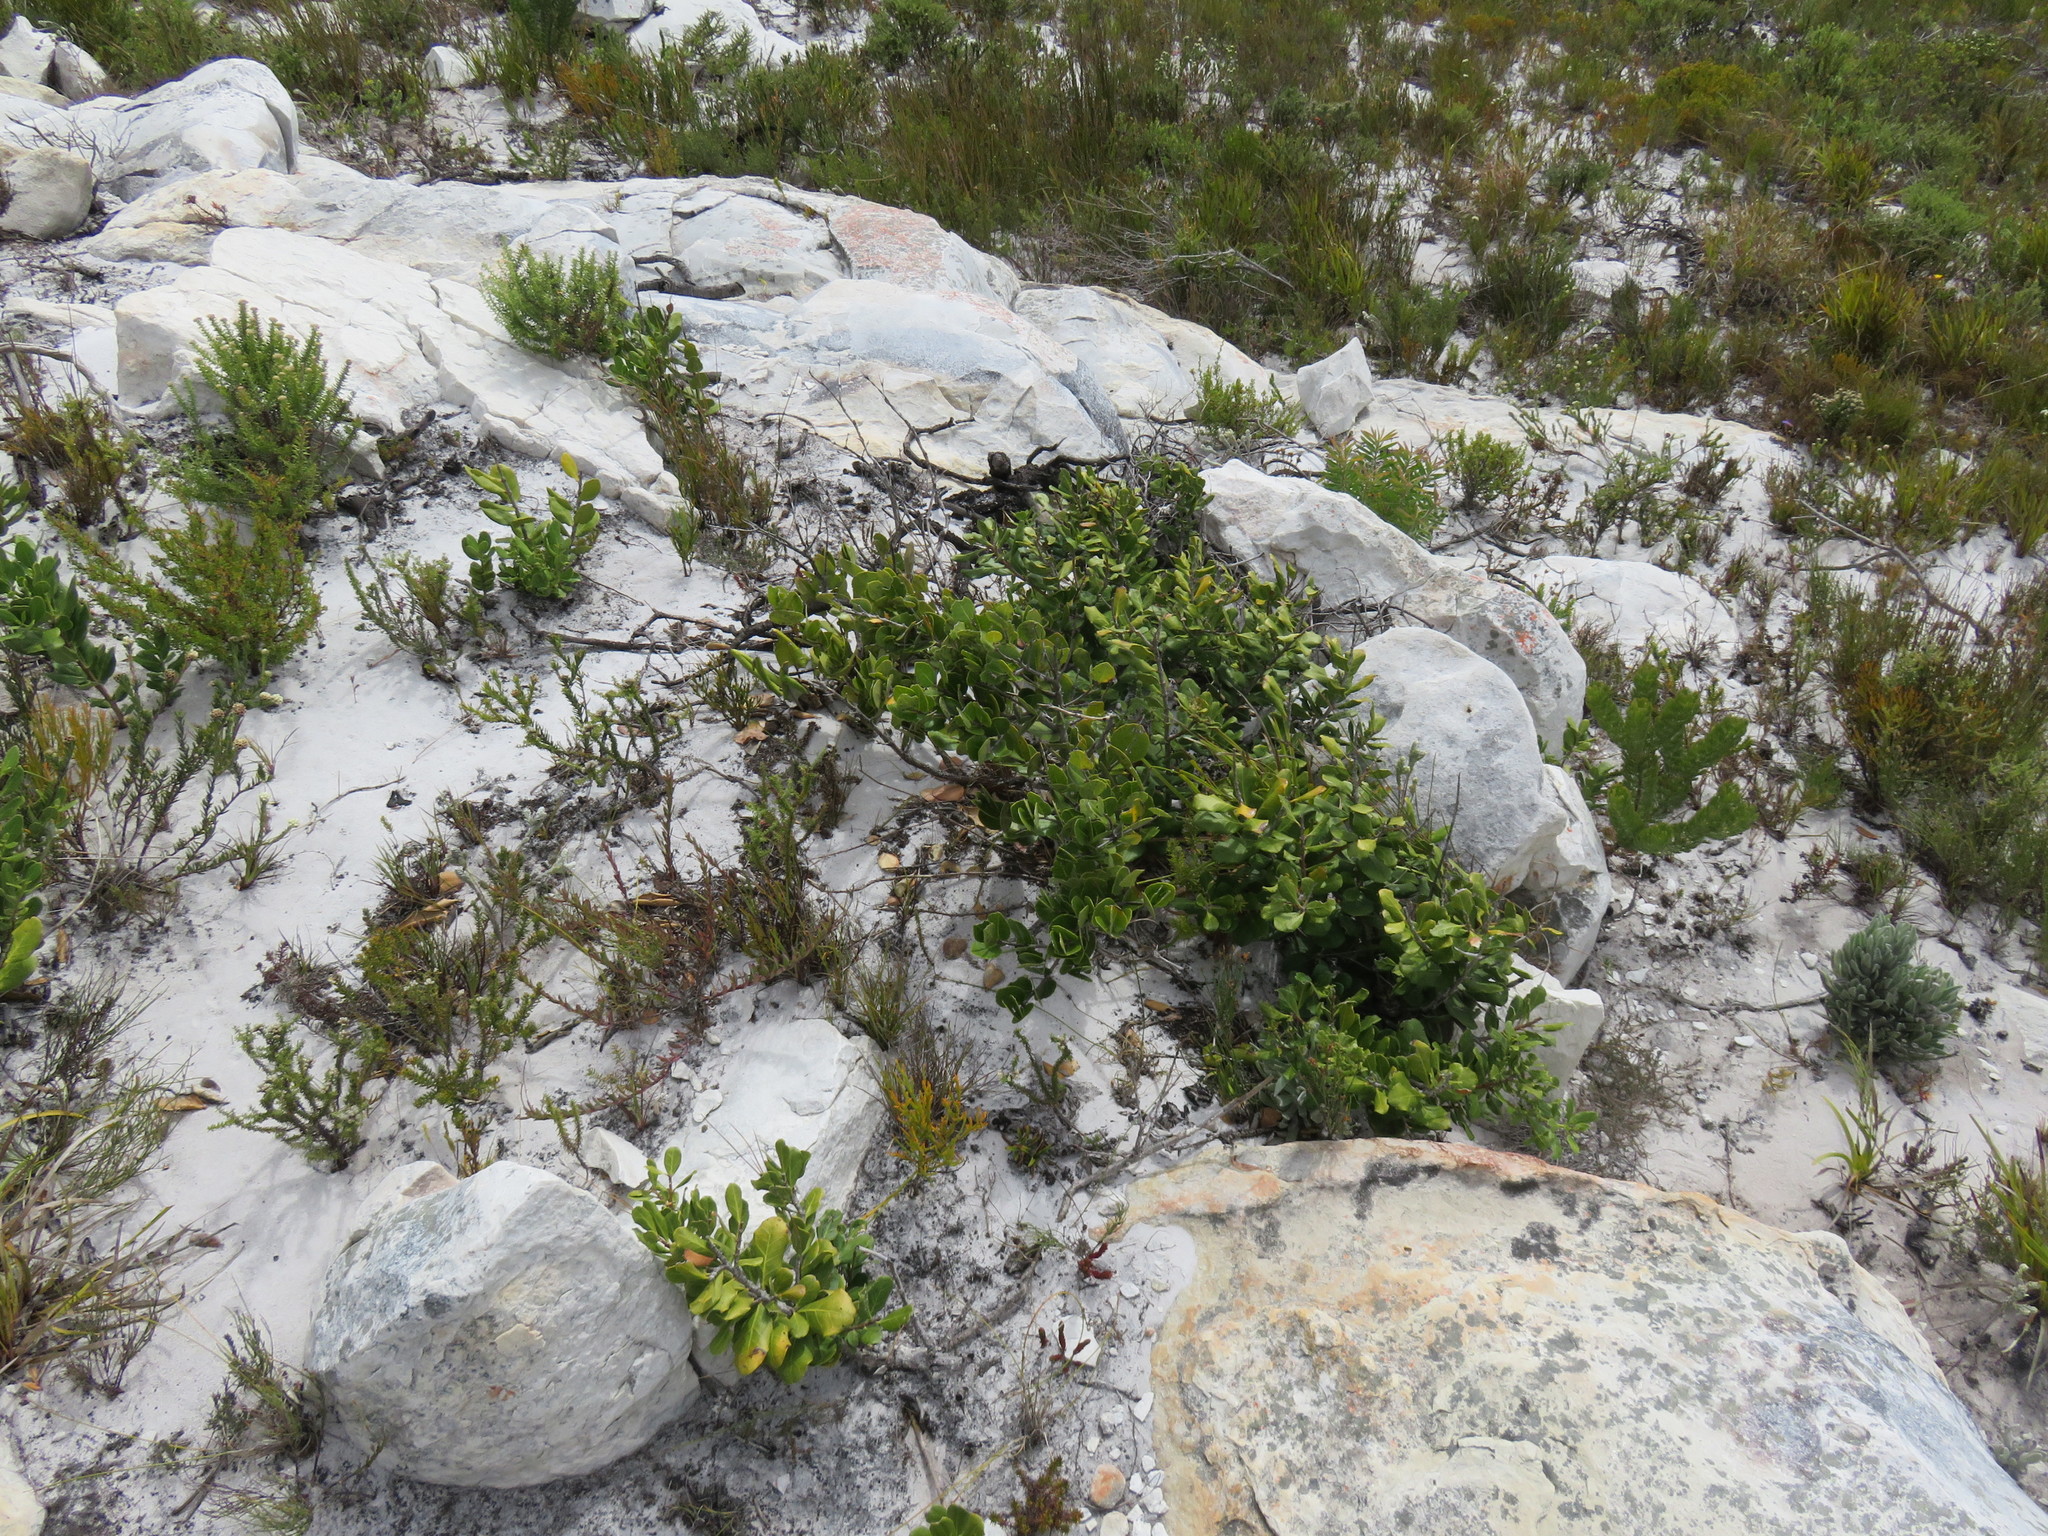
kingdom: Plantae
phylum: Tracheophyta
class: Magnoliopsida
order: Lamiales
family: Oleaceae
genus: Olea
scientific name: Olea capensis
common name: Black ironwood
